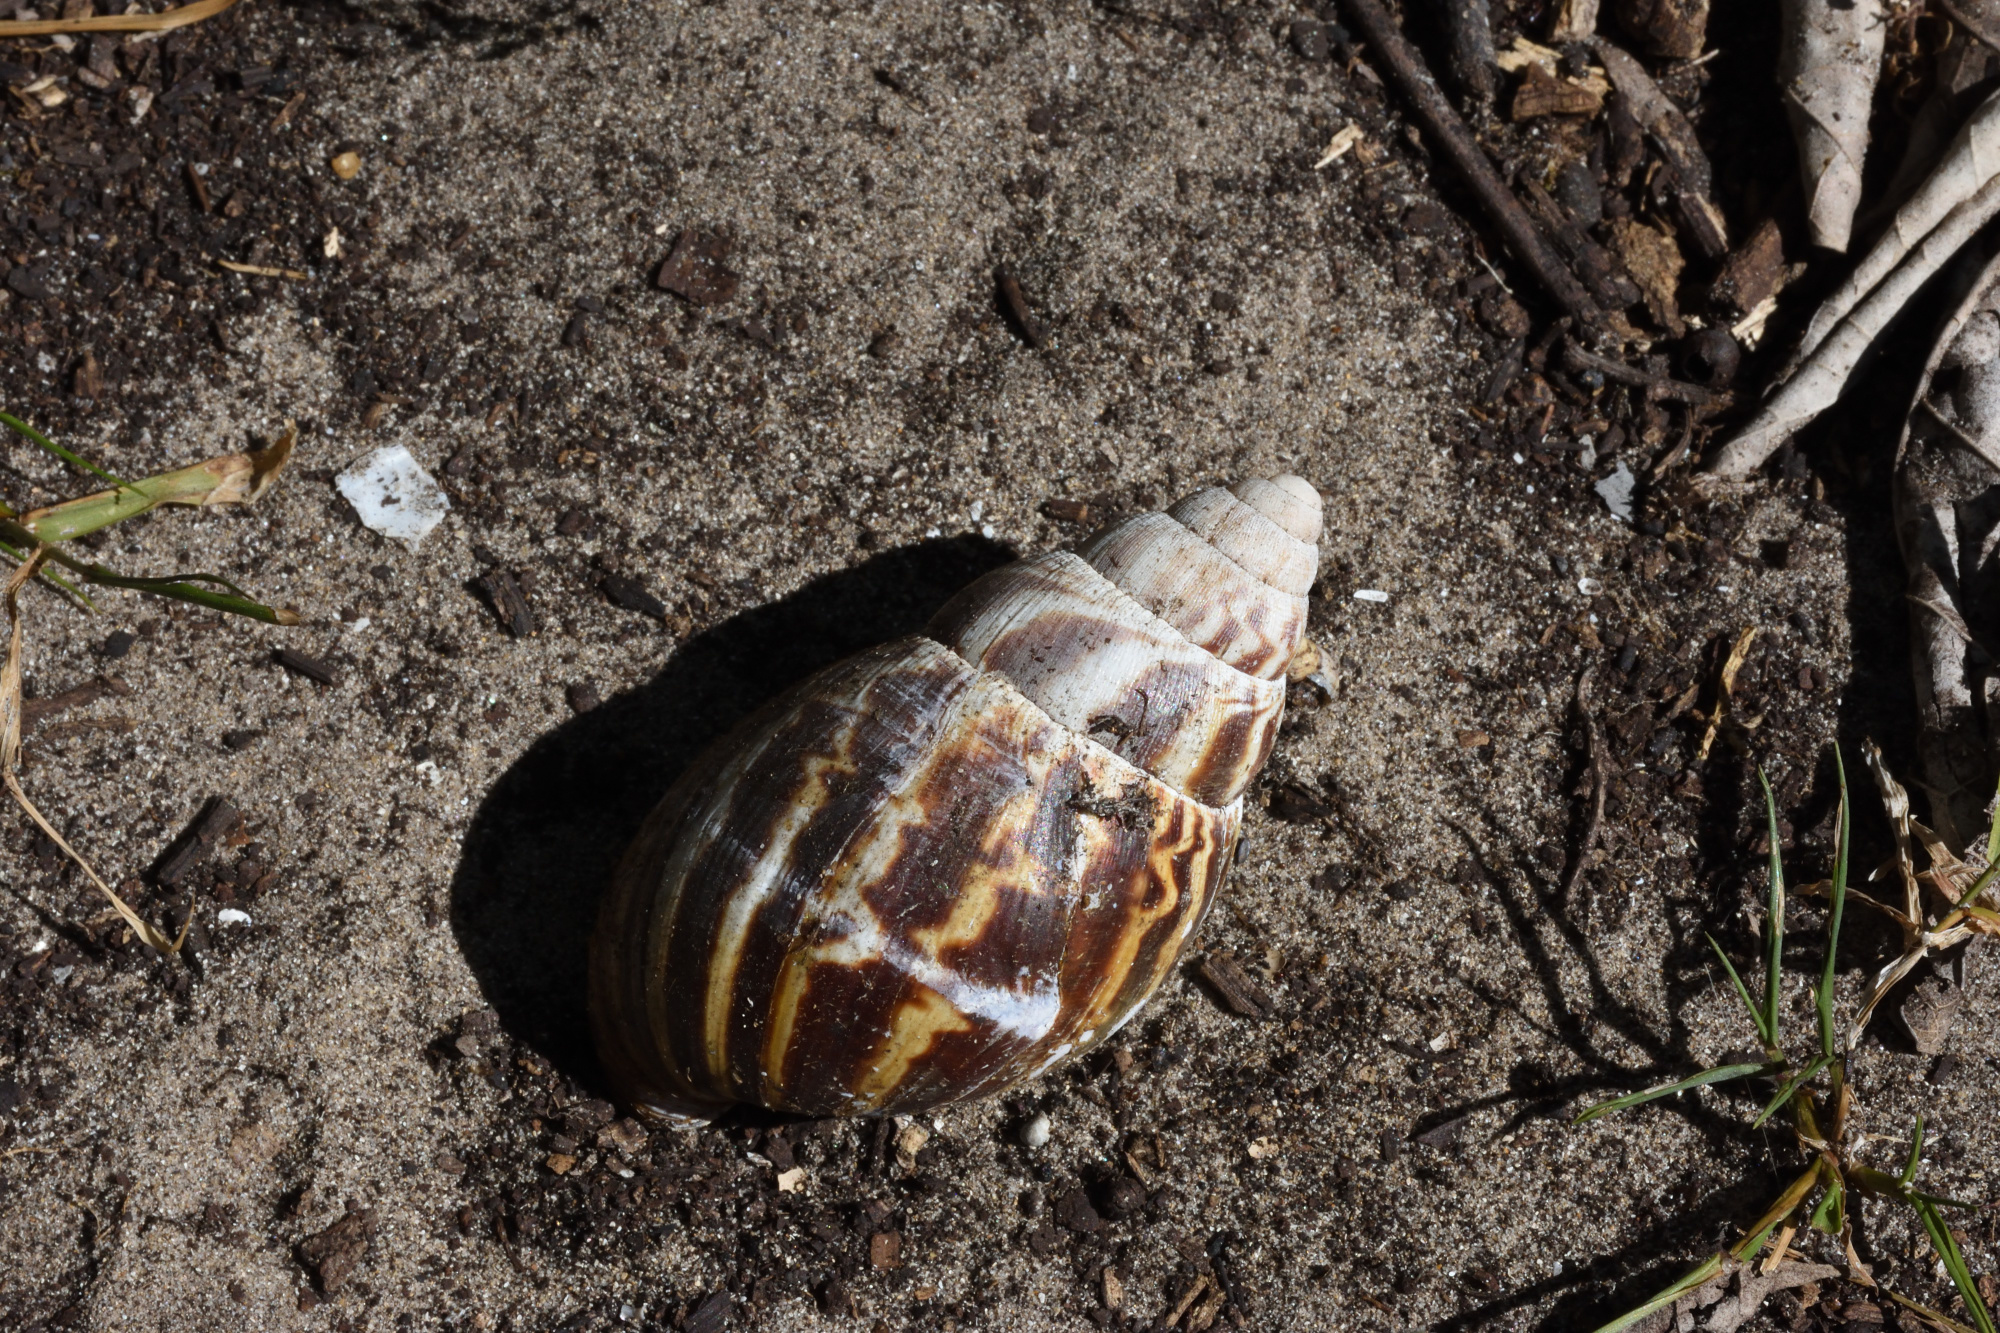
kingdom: Animalia
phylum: Mollusca
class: Gastropoda
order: Stylommatophora
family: Achatinidae
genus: Cochlitoma
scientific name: Cochlitoma zebra
